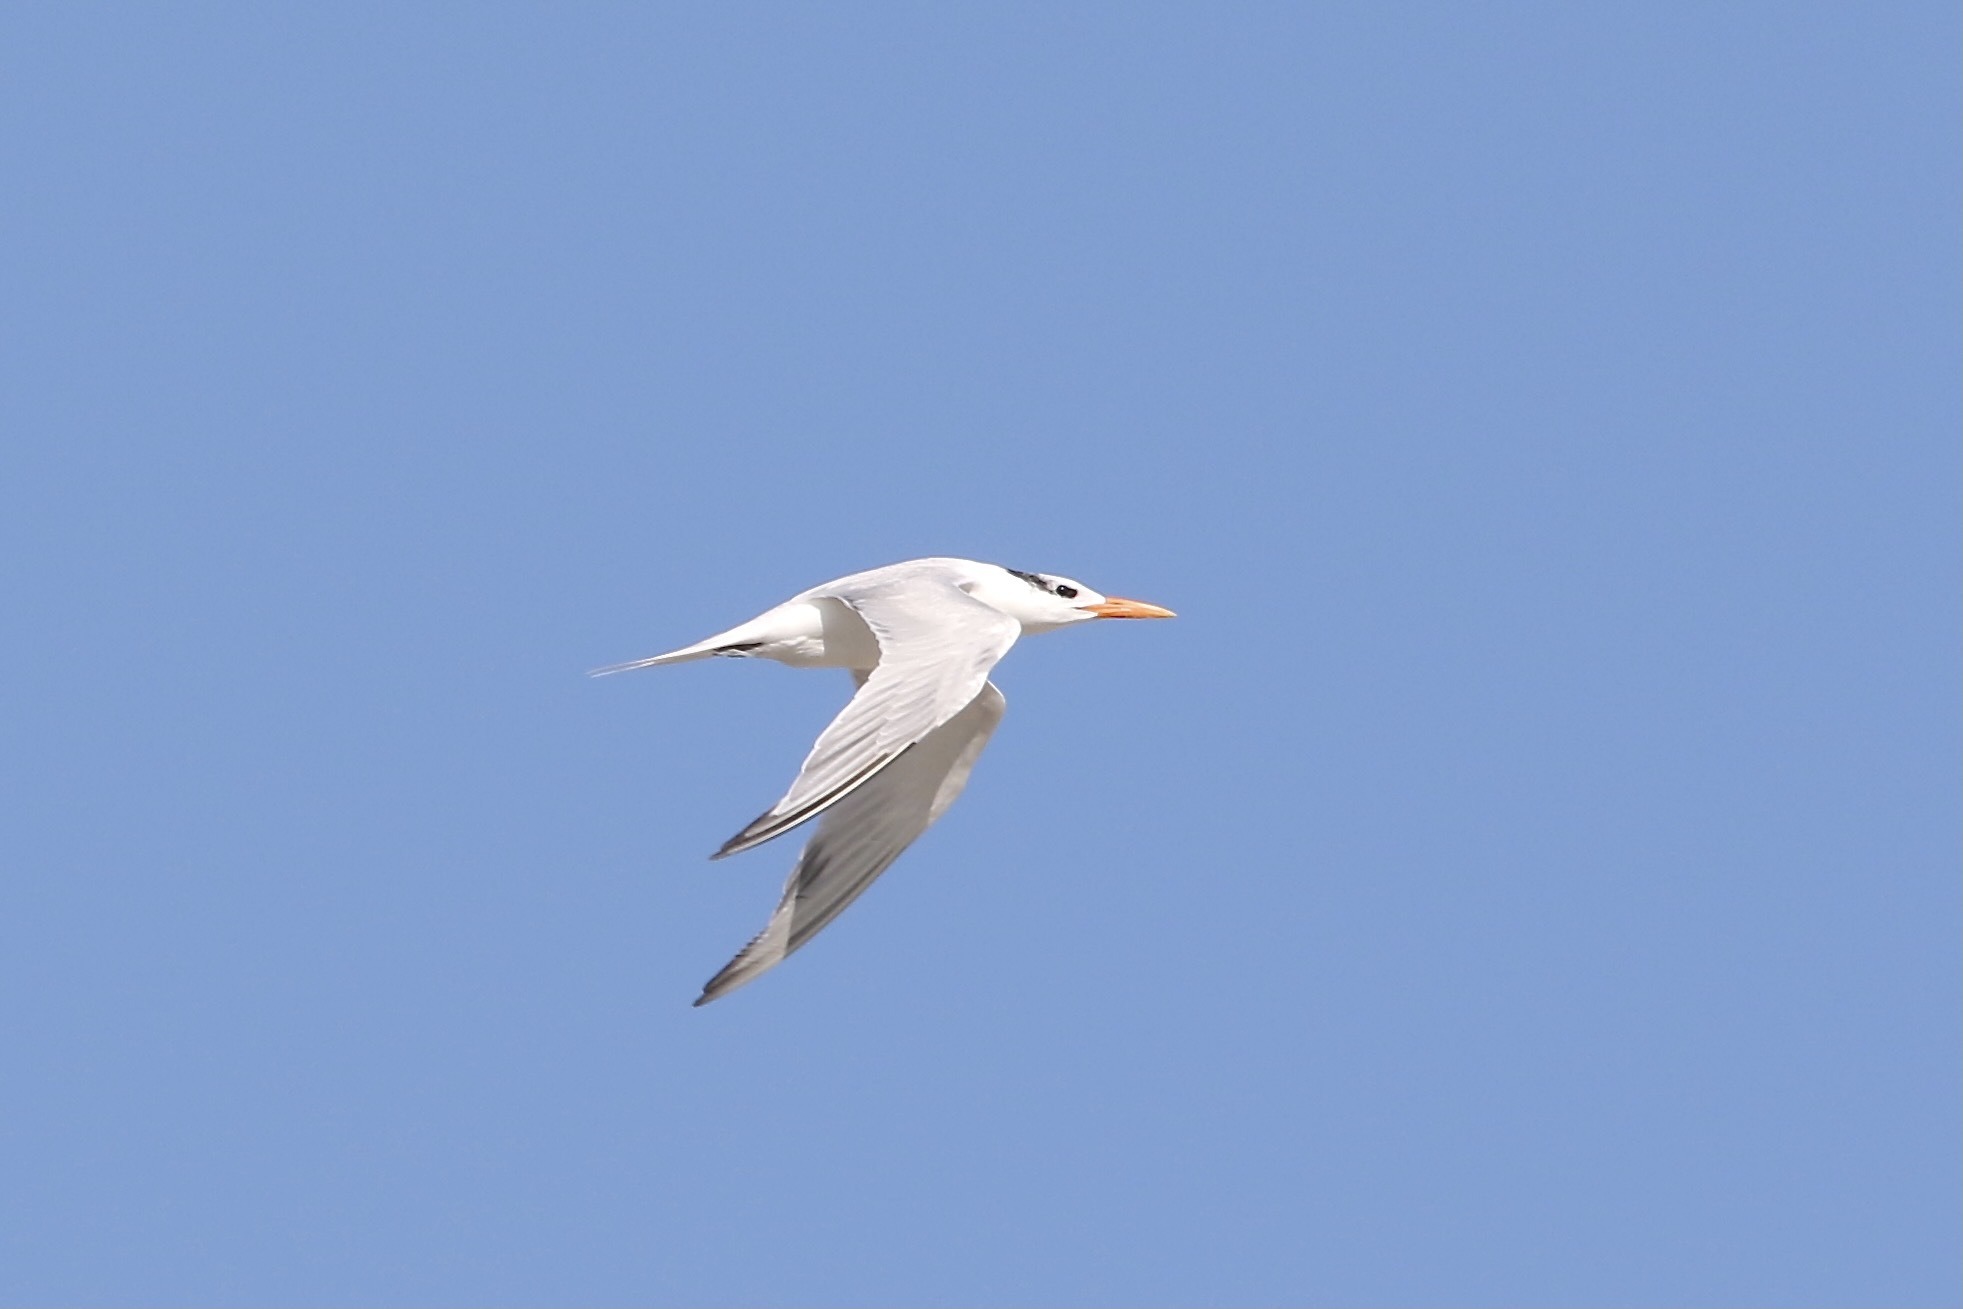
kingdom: Animalia
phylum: Chordata
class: Aves
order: Charadriiformes
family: Laridae
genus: Thalasseus
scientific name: Thalasseus maximus
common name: Royal tern
